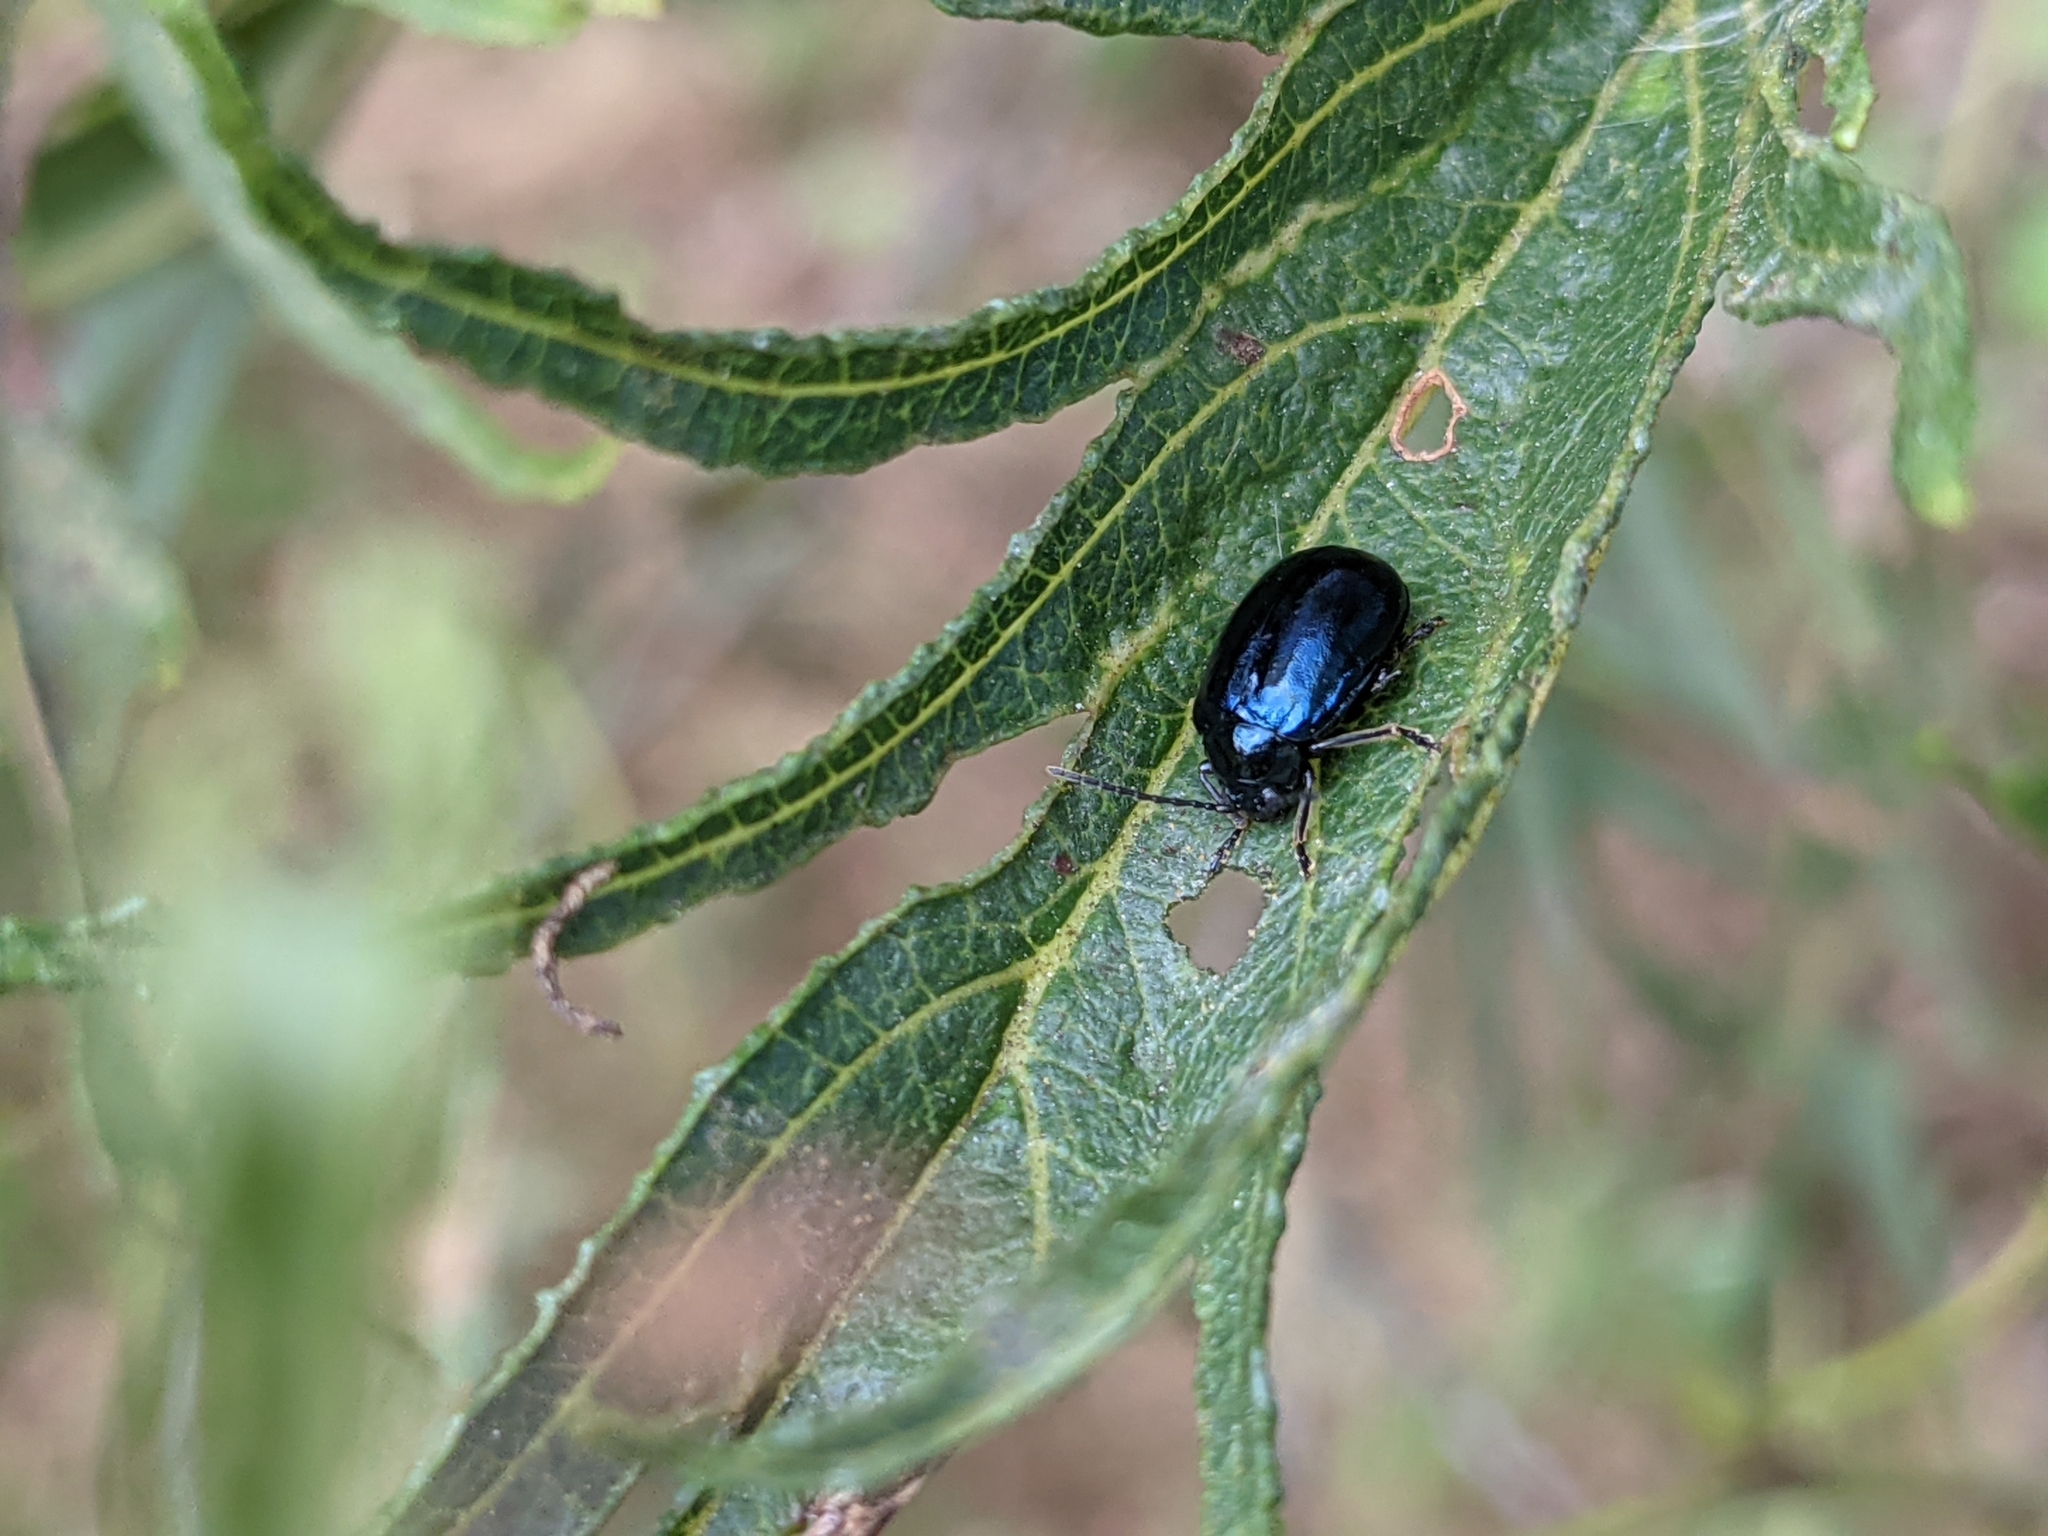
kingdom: Animalia
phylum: Arthropoda
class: Insecta
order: Coleoptera
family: Chrysomelidae
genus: Agelastica
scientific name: Agelastica alni
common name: Alder leaf beetle
